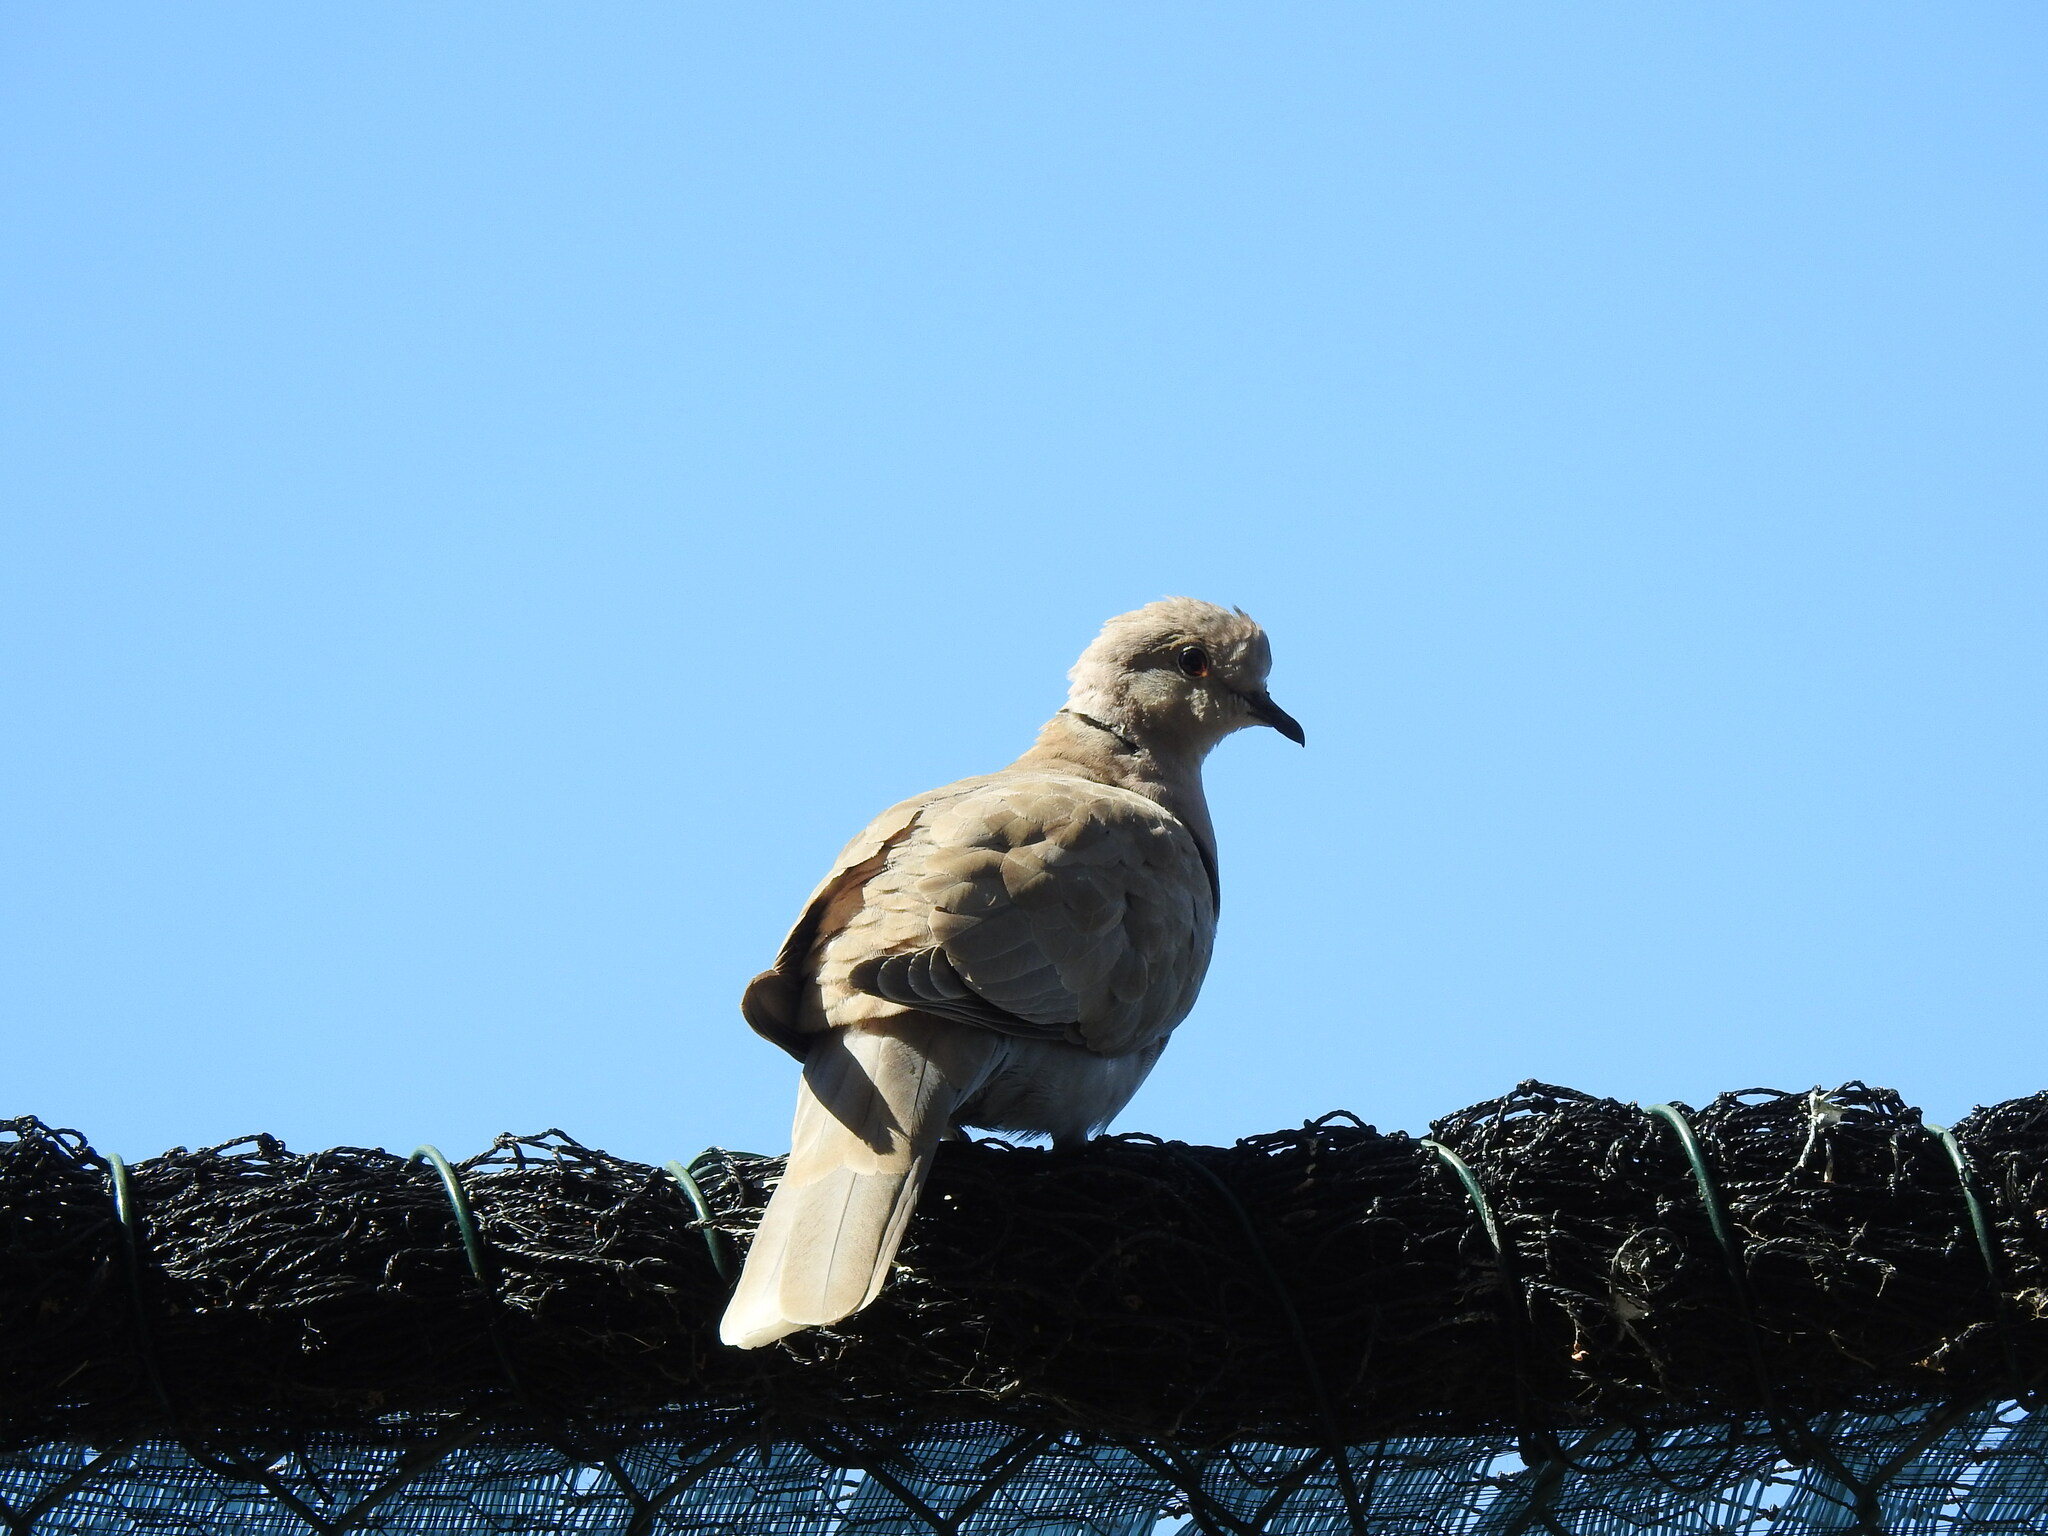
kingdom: Animalia
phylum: Chordata
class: Aves
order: Columbiformes
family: Columbidae
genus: Streptopelia
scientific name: Streptopelia decaocto
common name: Eurasian collared dove
